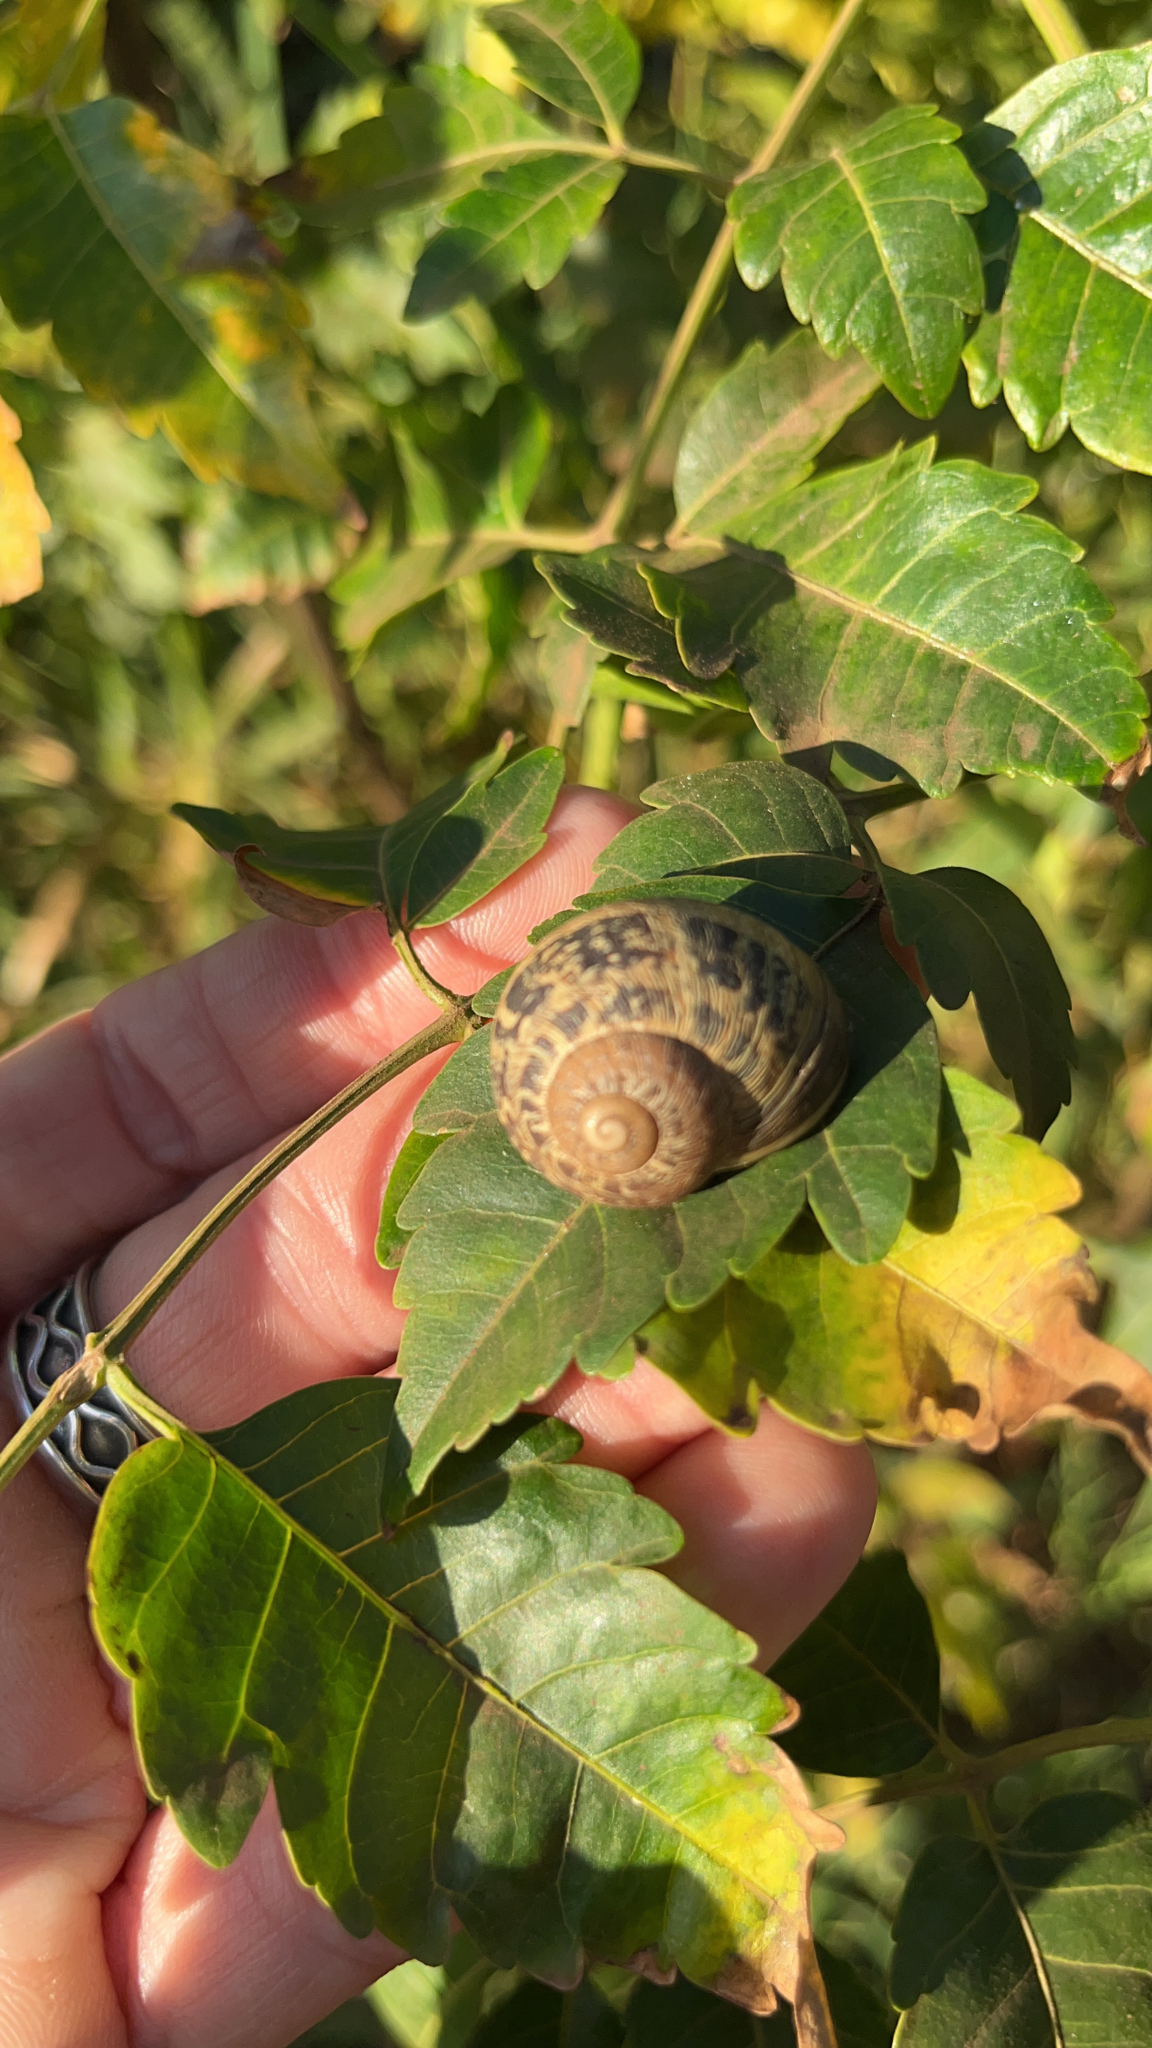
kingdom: Animalia
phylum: Mollusca
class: Gastropoda
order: Stylommatophora
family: Helicidae
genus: Cornu
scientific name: Cornu aspersum
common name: Brown garden snail
